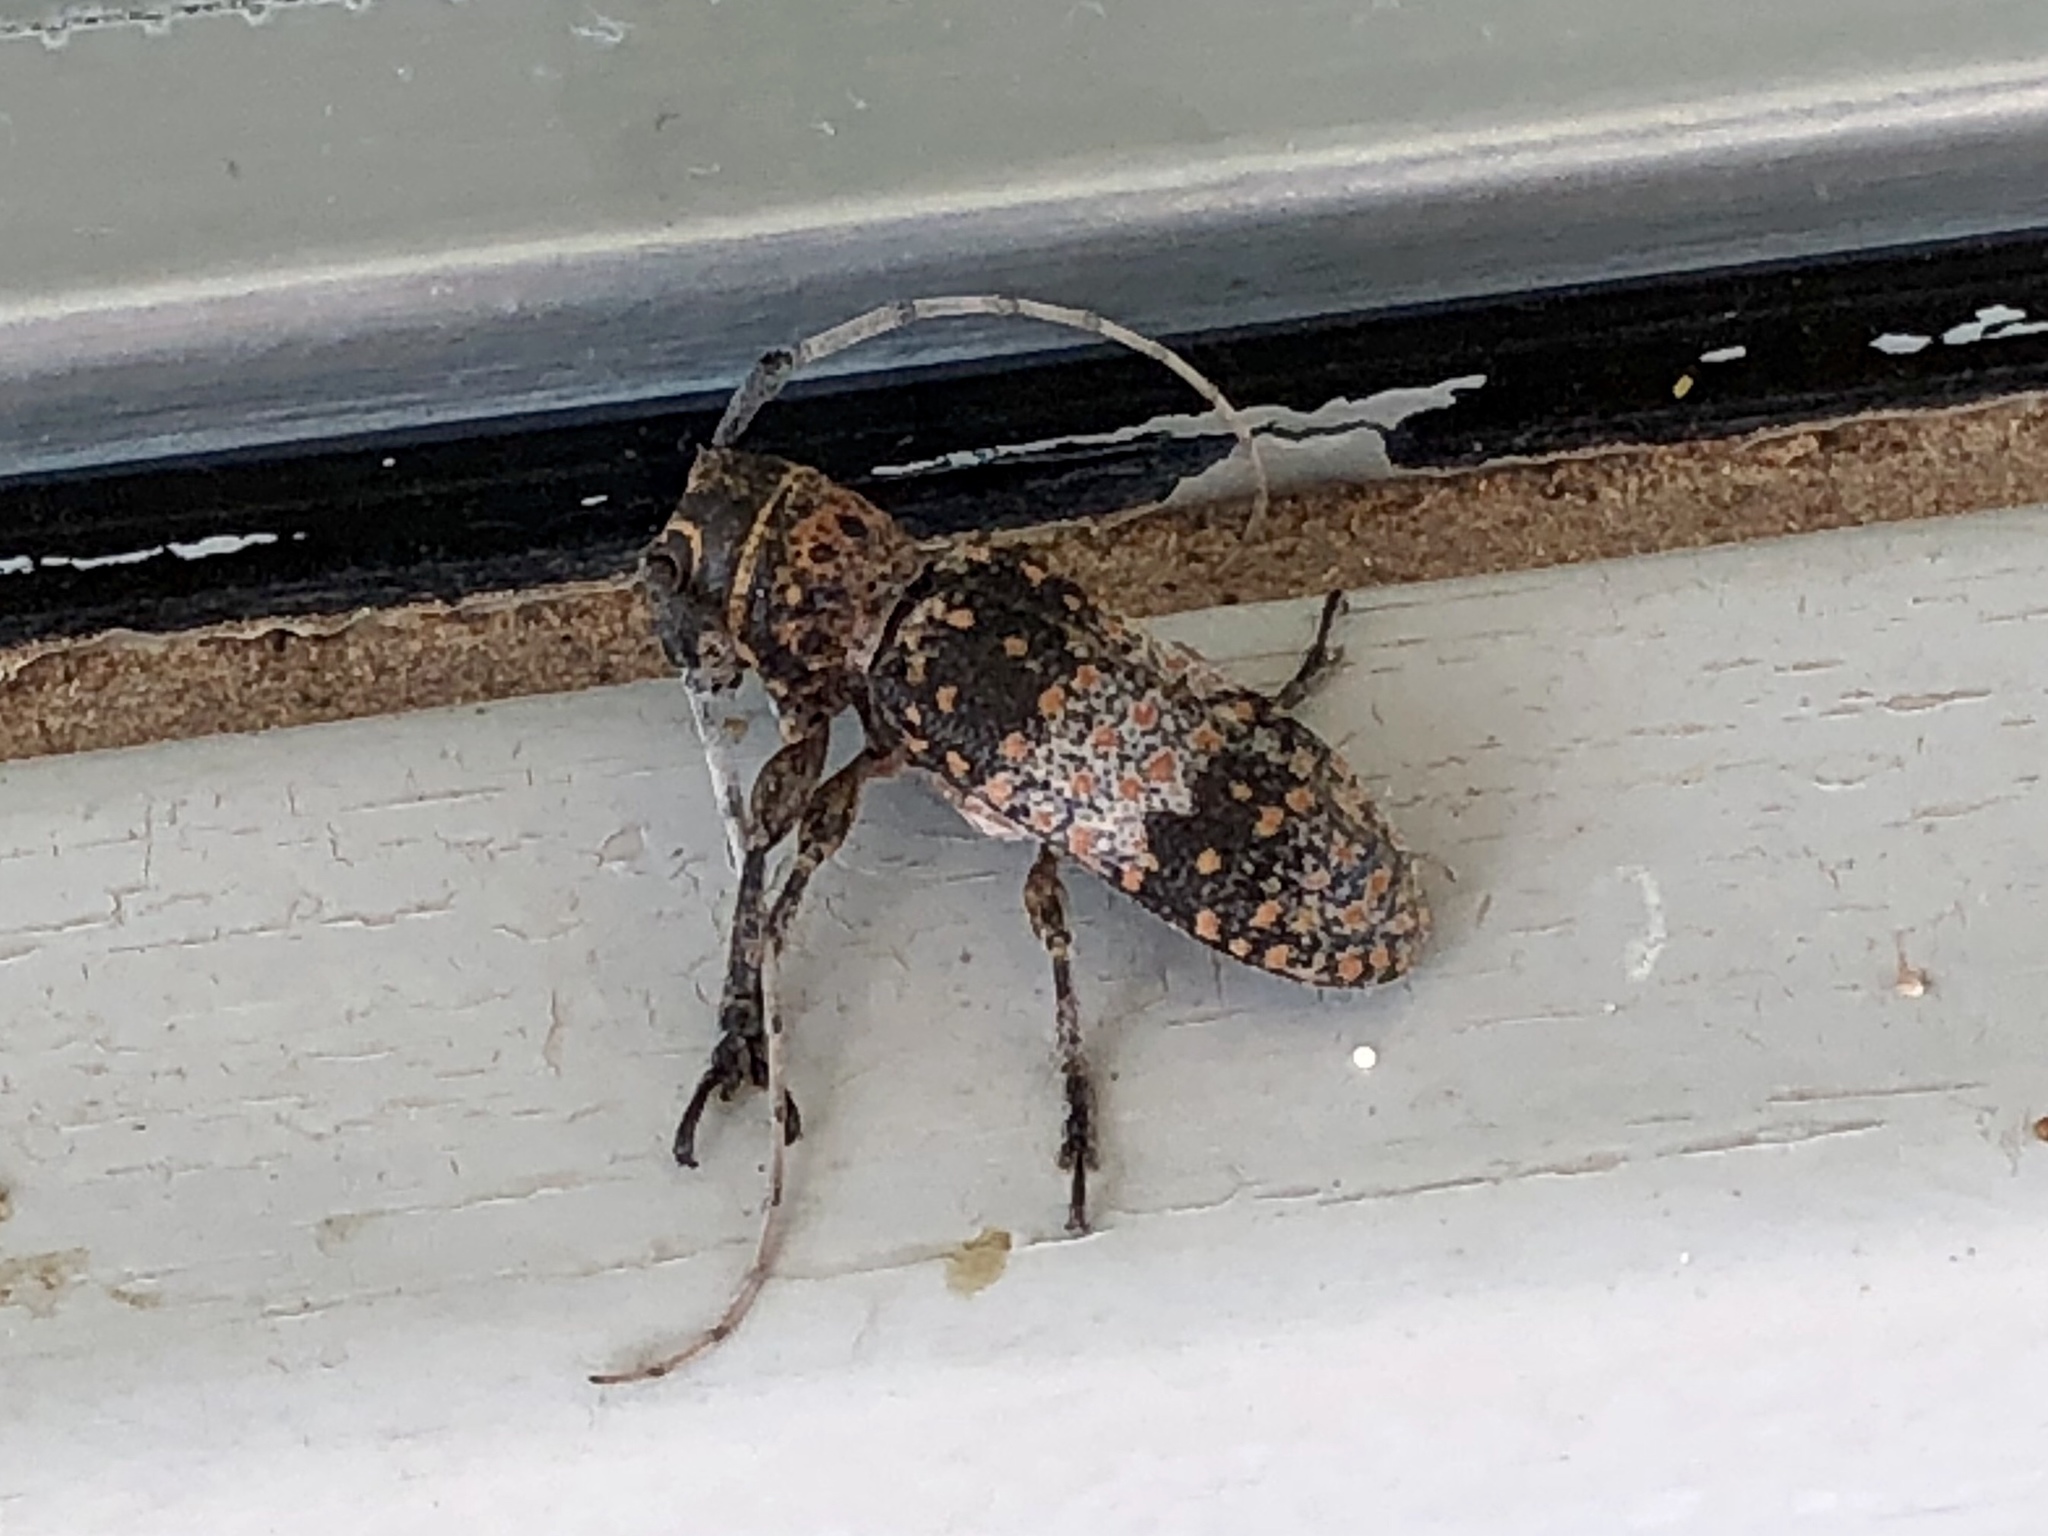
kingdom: Animalia
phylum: Arthropoda
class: Insecta
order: Coleoptera
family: Cerambycidae
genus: Oncideres
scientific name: Oncideres rhodosticta
